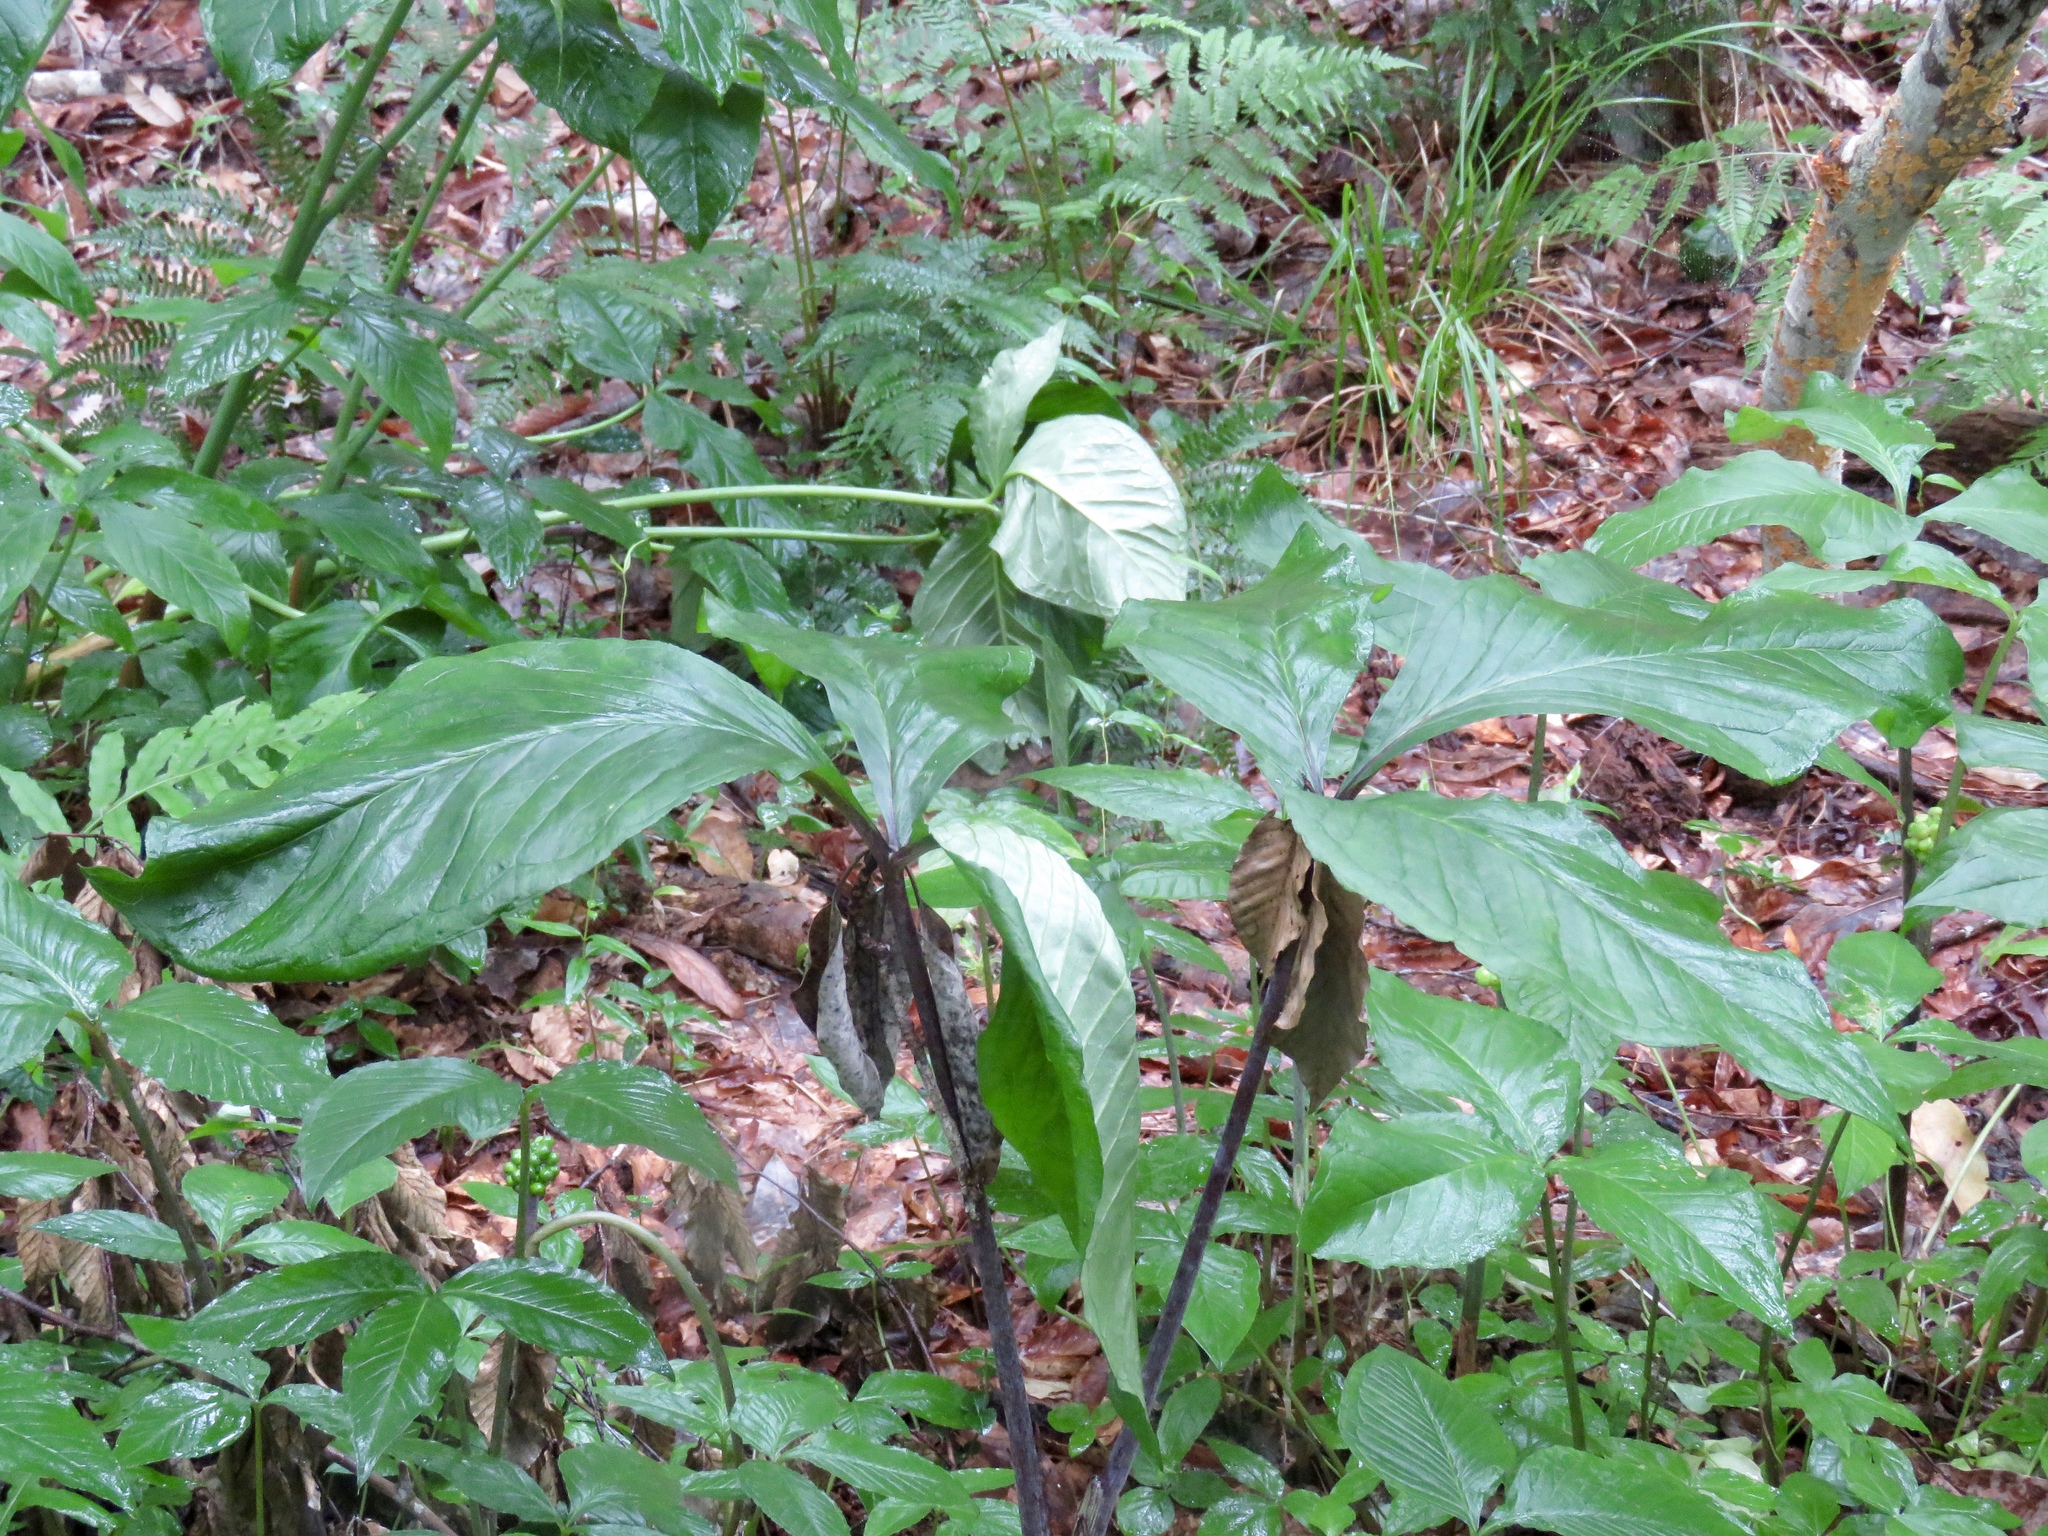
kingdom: Plantae
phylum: Tracheophyta
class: Liliopsida
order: Alismatales
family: Araceae
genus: Arisaema
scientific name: Arisaema triphyllum
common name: Jack-in-the-pulpit
